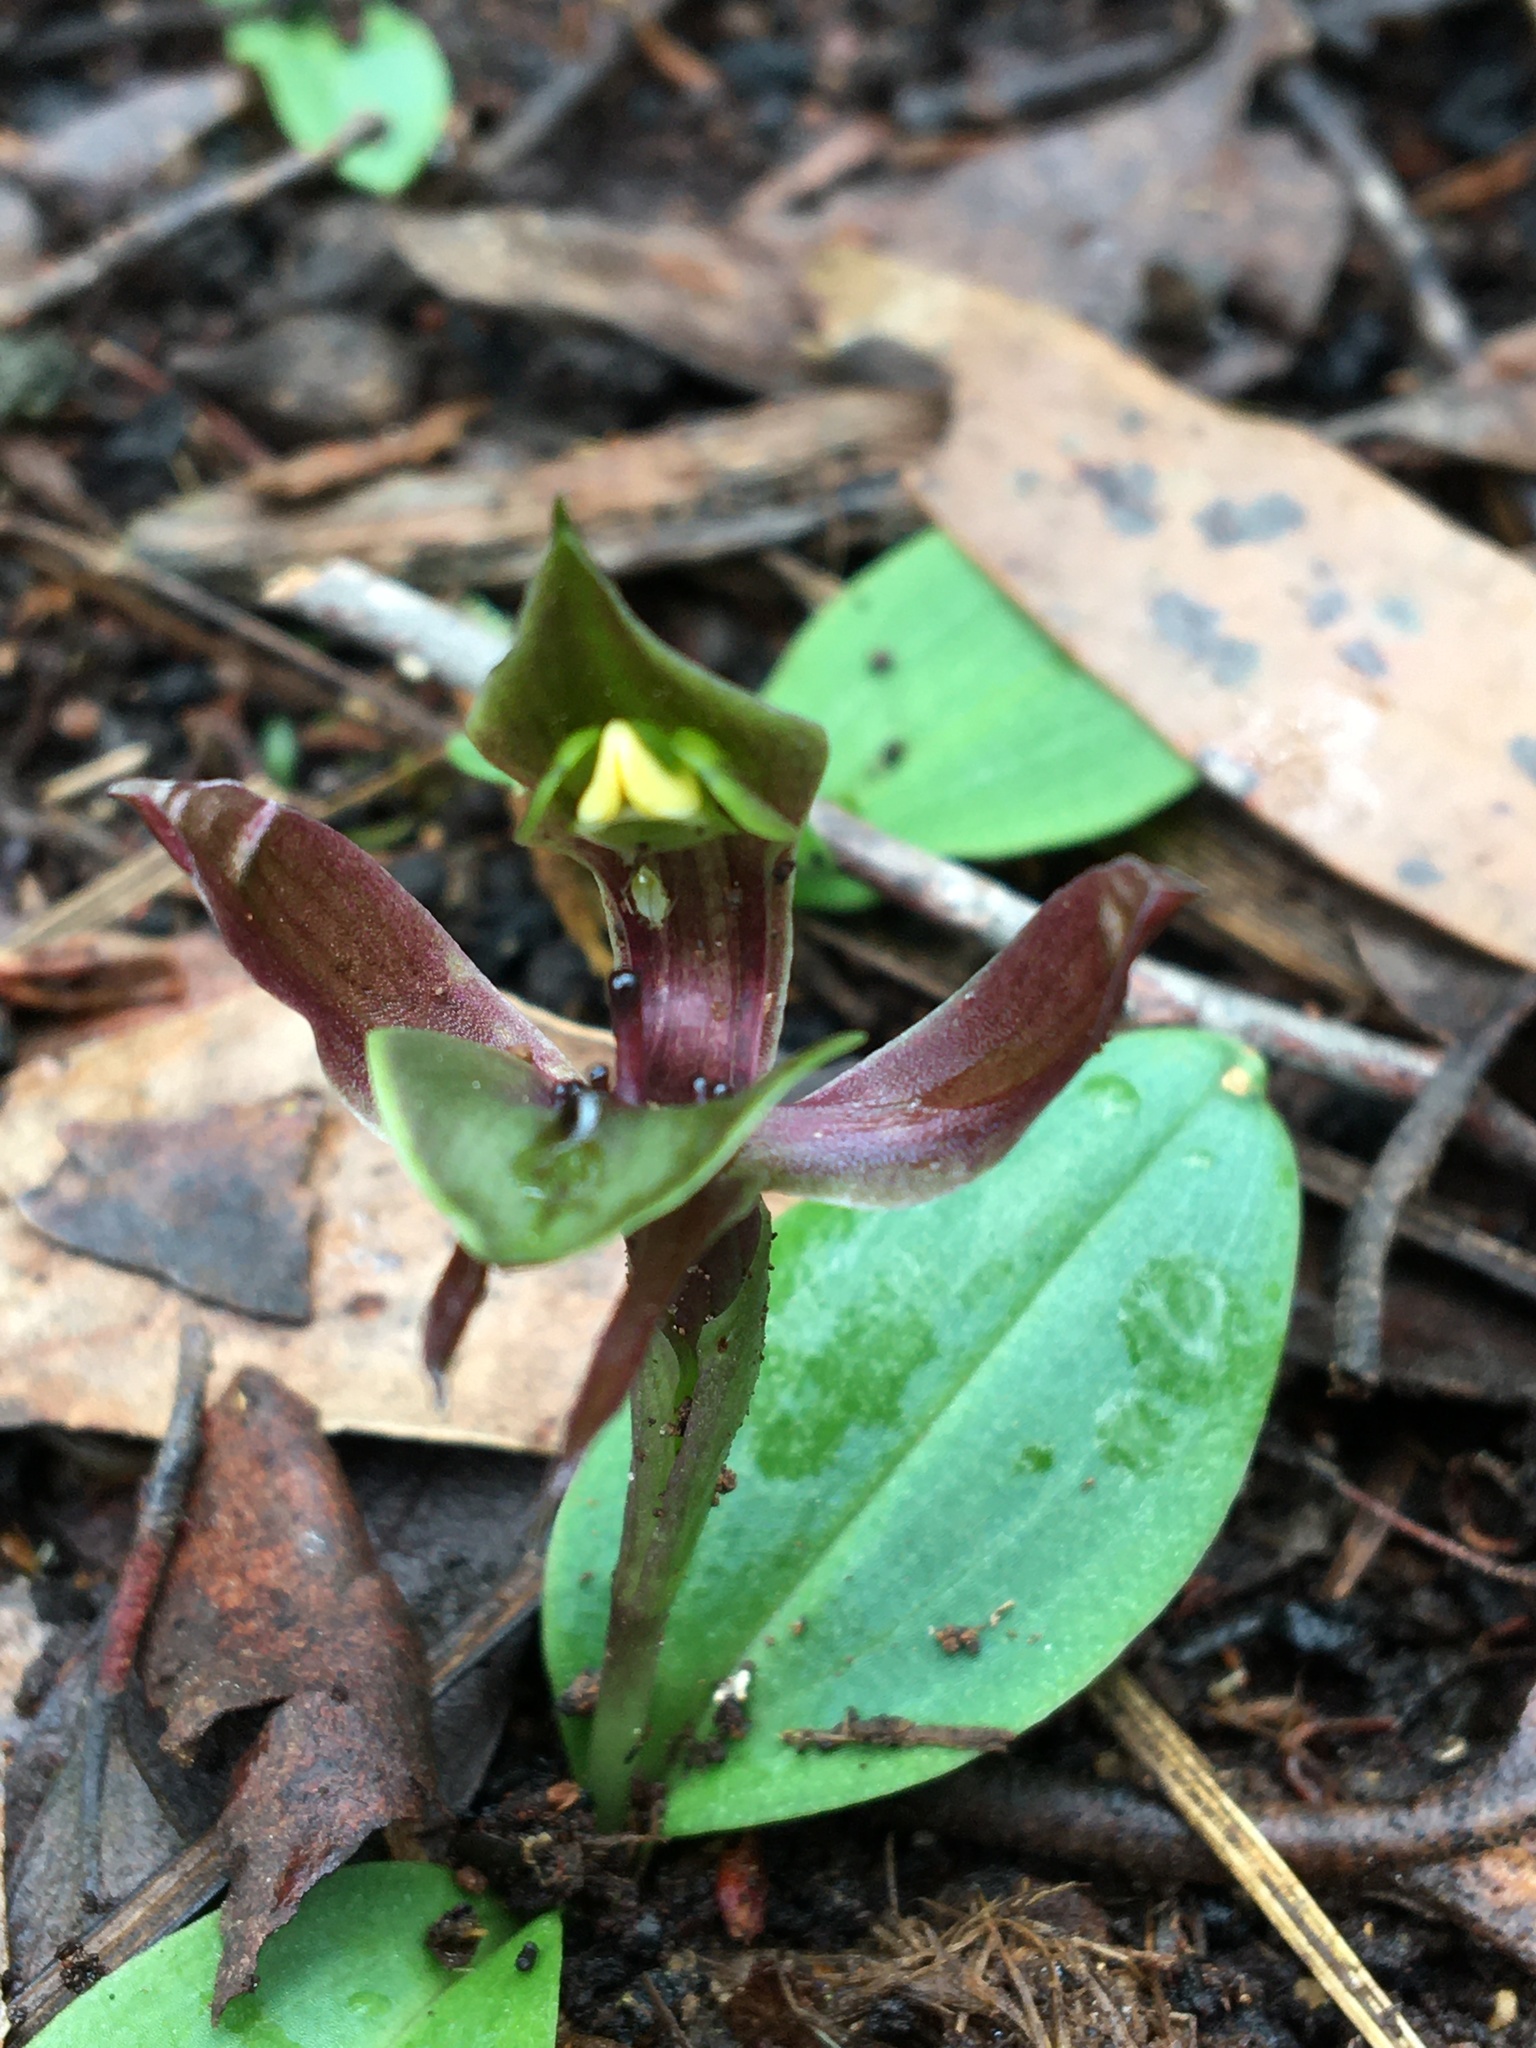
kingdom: Plantae
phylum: Tracheophyta
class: Liliopsida
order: Asparagales
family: Orchidaceae
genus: Chiloglottis
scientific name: Chiloglottis valida
